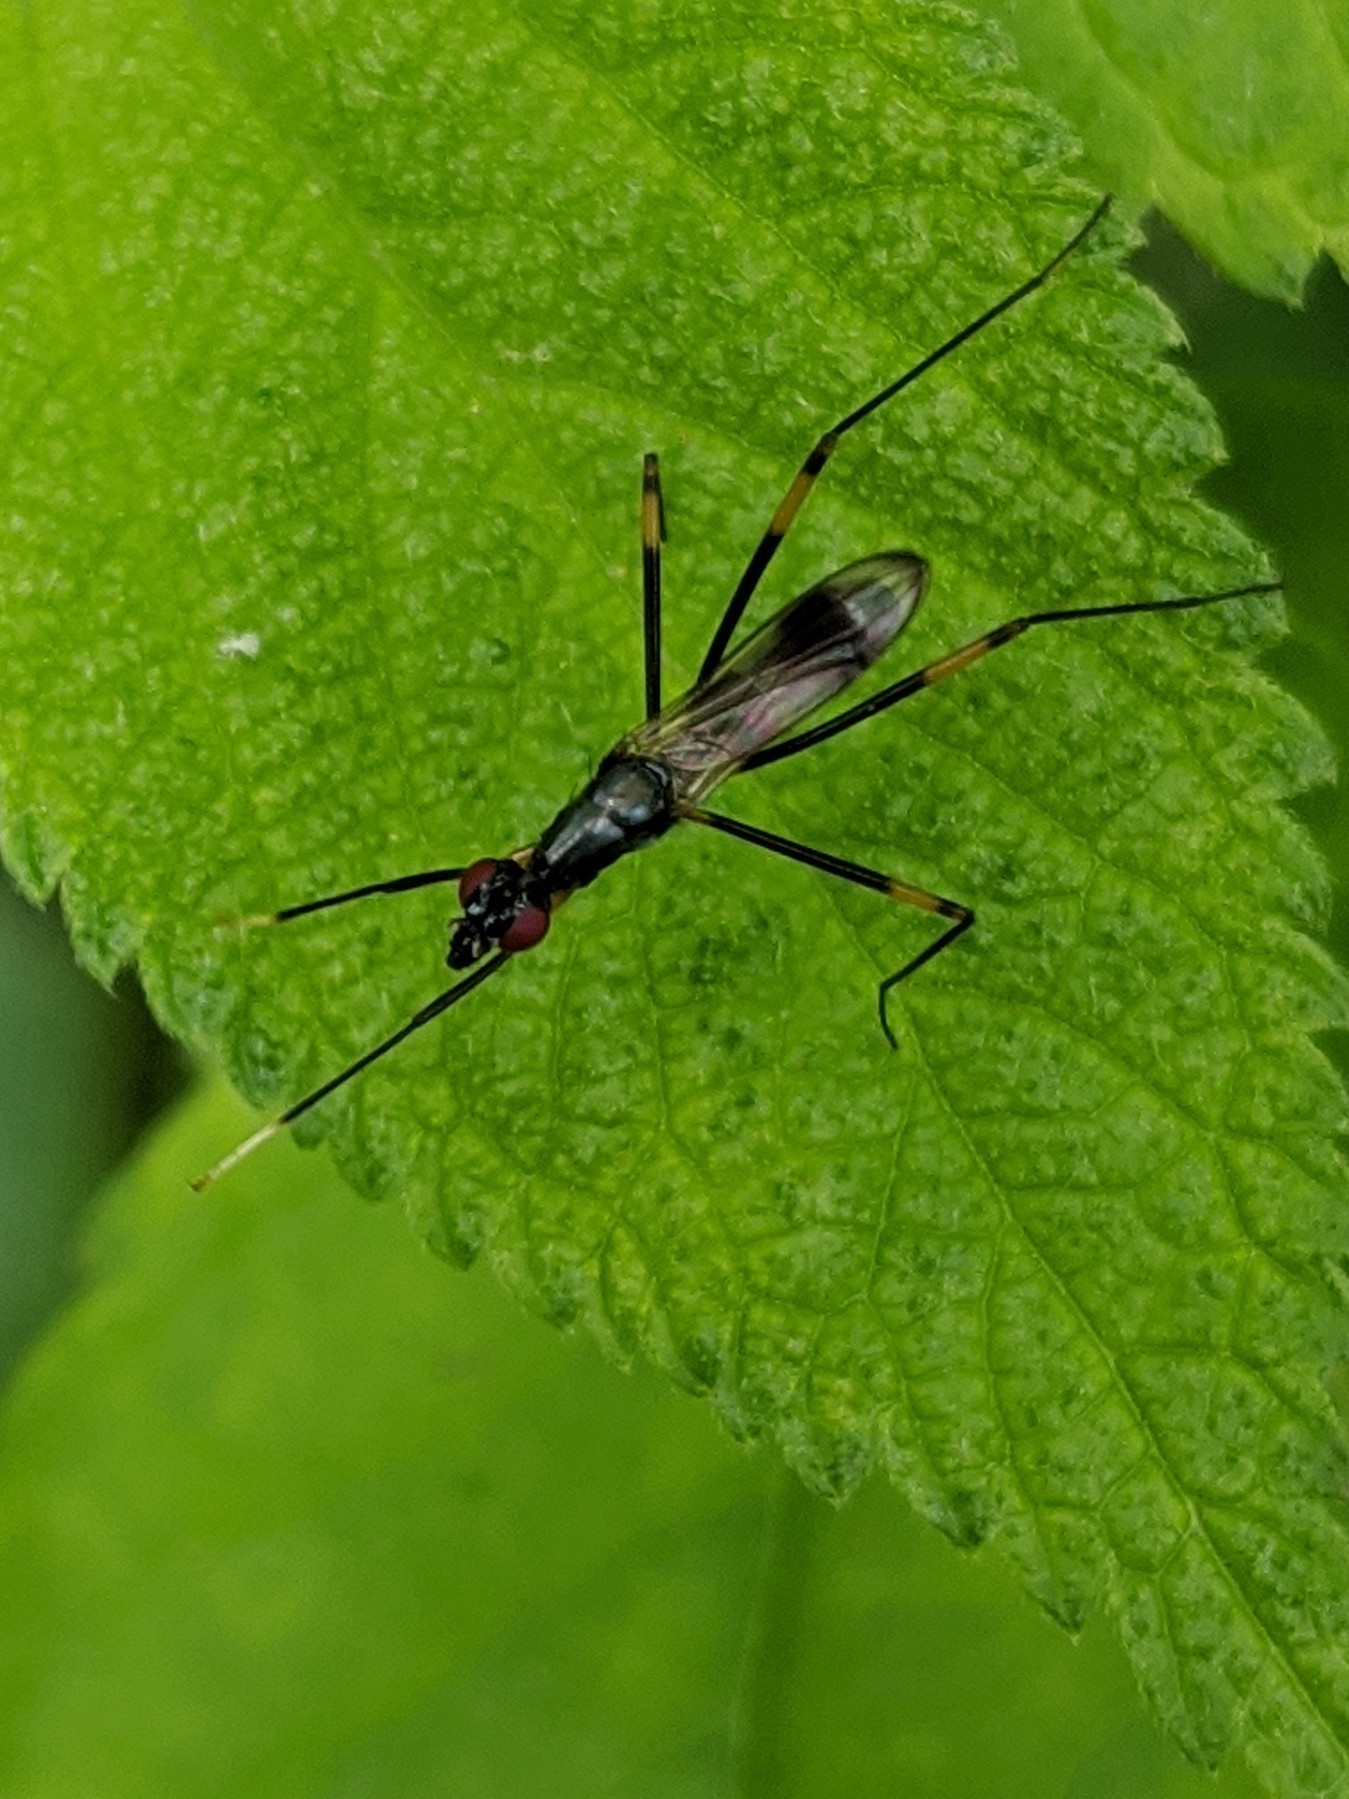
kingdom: Animalia
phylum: Arthropoda
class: Insecta
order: Diptera
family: Micropezidae
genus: Rainieria
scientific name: Rainieria antennaepes
